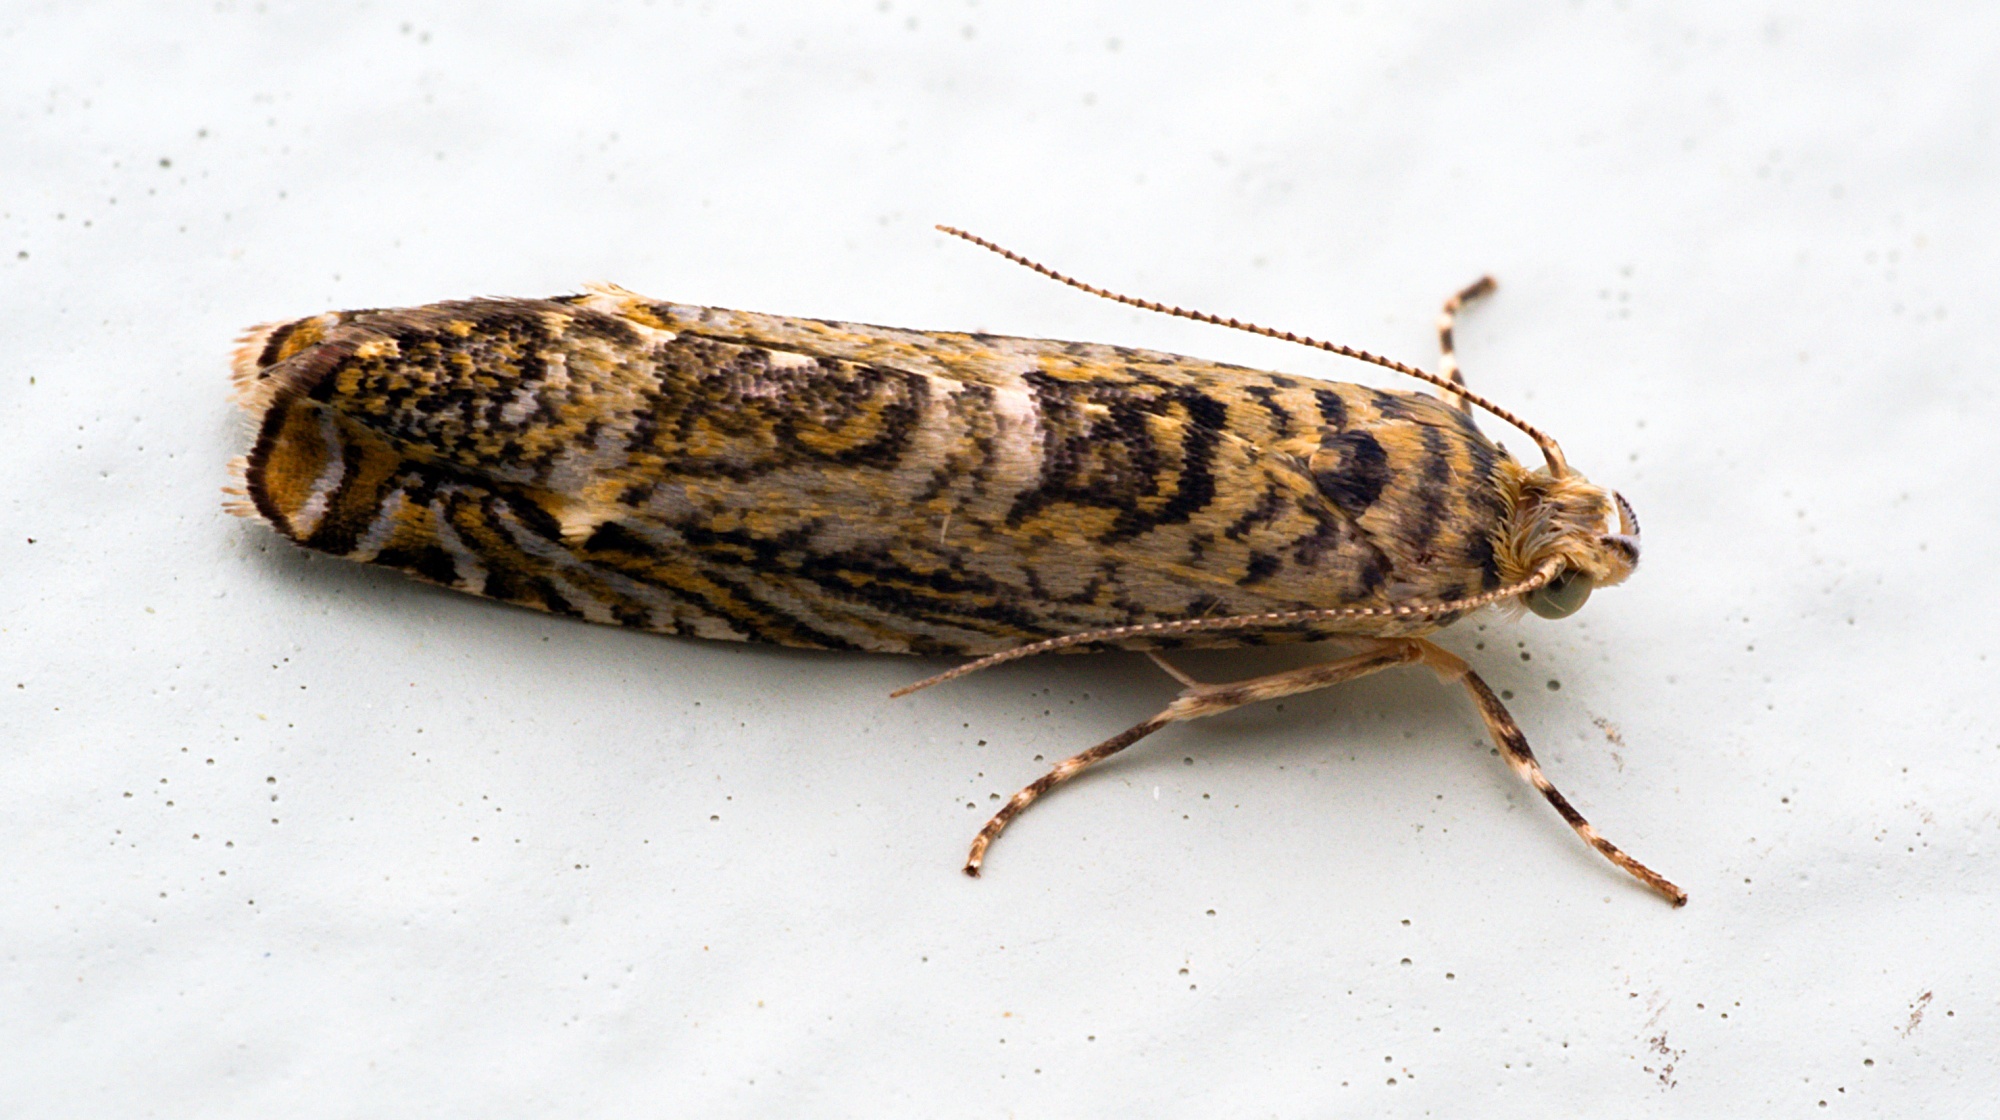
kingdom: Animalia
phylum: Arthropoda
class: Insecta
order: Lepidoptera
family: Plutellidae
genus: Doxophyrtis
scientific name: Doxophyrtis hydrocosma
